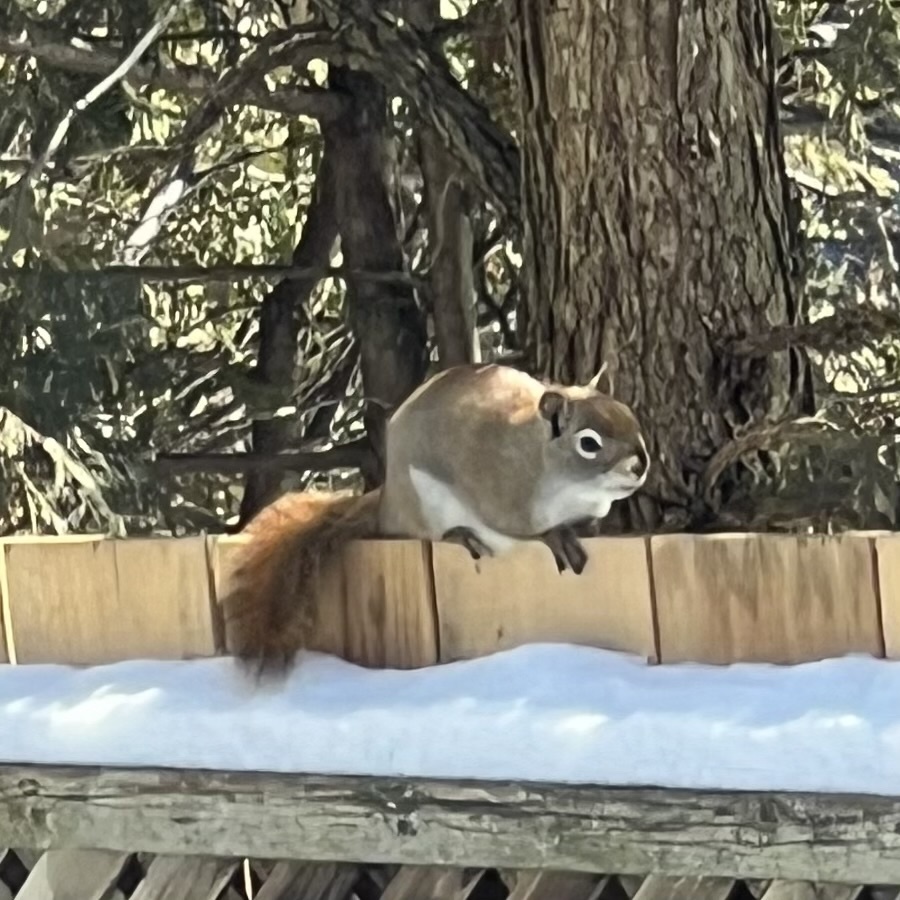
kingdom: Animalia
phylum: Chordata
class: Mammalia
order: Rodentia
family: Sciuridae
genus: Tamiasciurus
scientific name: Tamiasciurus hudsonicus
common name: Red squirrel
